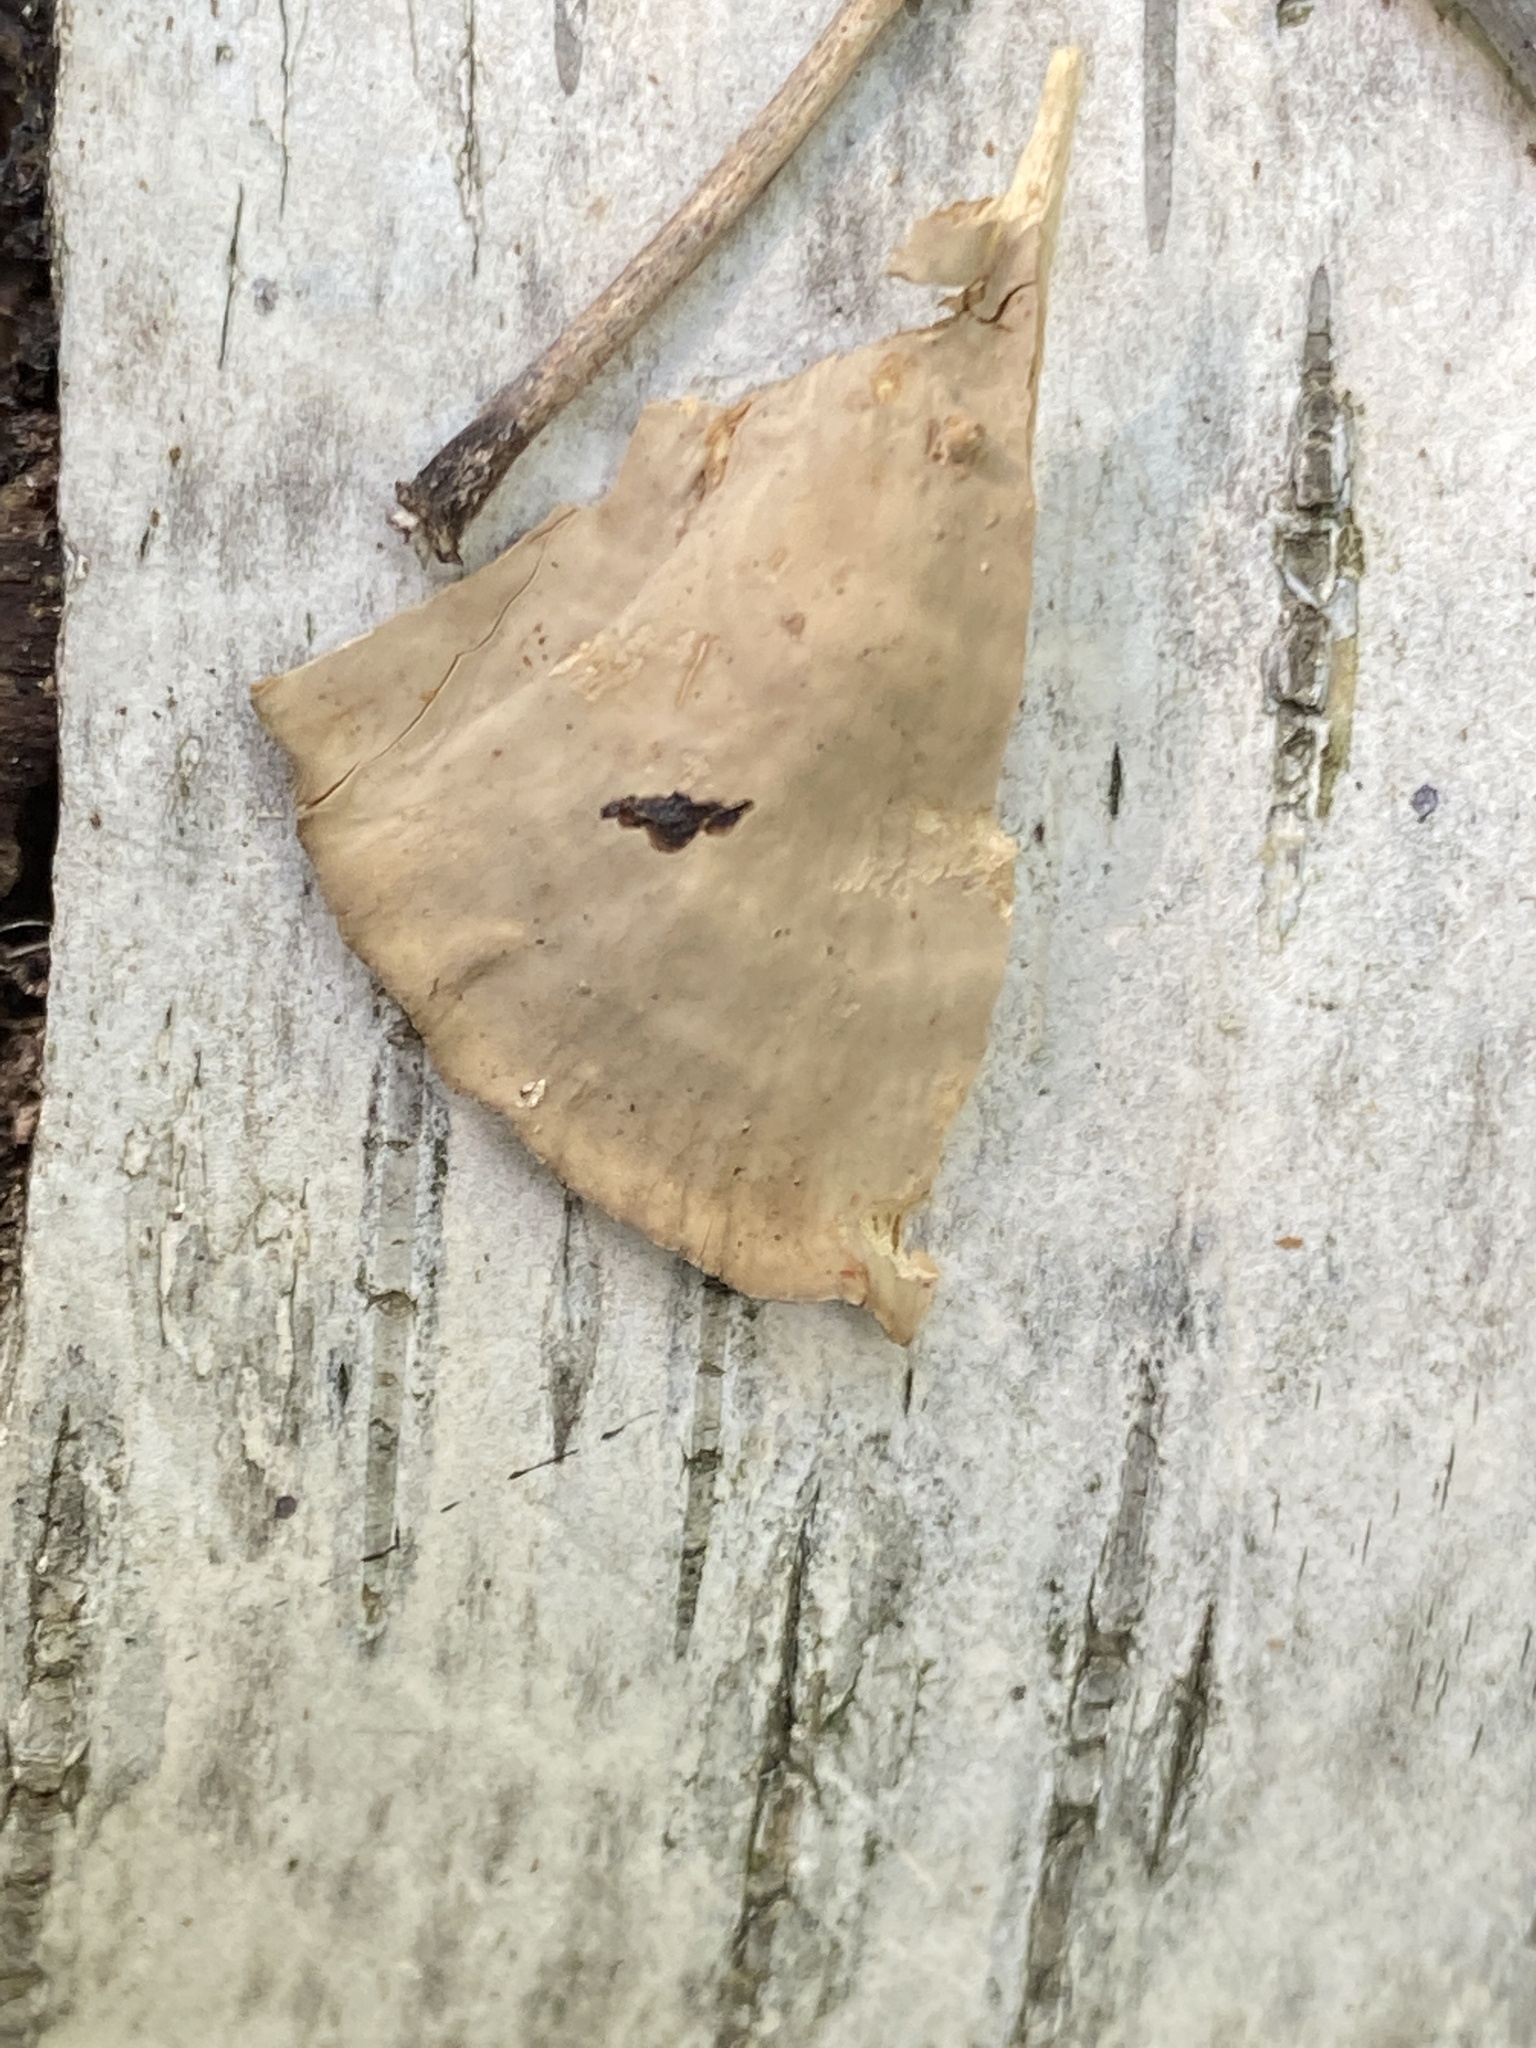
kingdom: Fungi
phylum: Basidiomycota
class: Agaricomycetes
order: Russulales
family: Stereaceae
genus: Stereum
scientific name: Stereum subtomentosum
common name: Yellowing curtain crust
